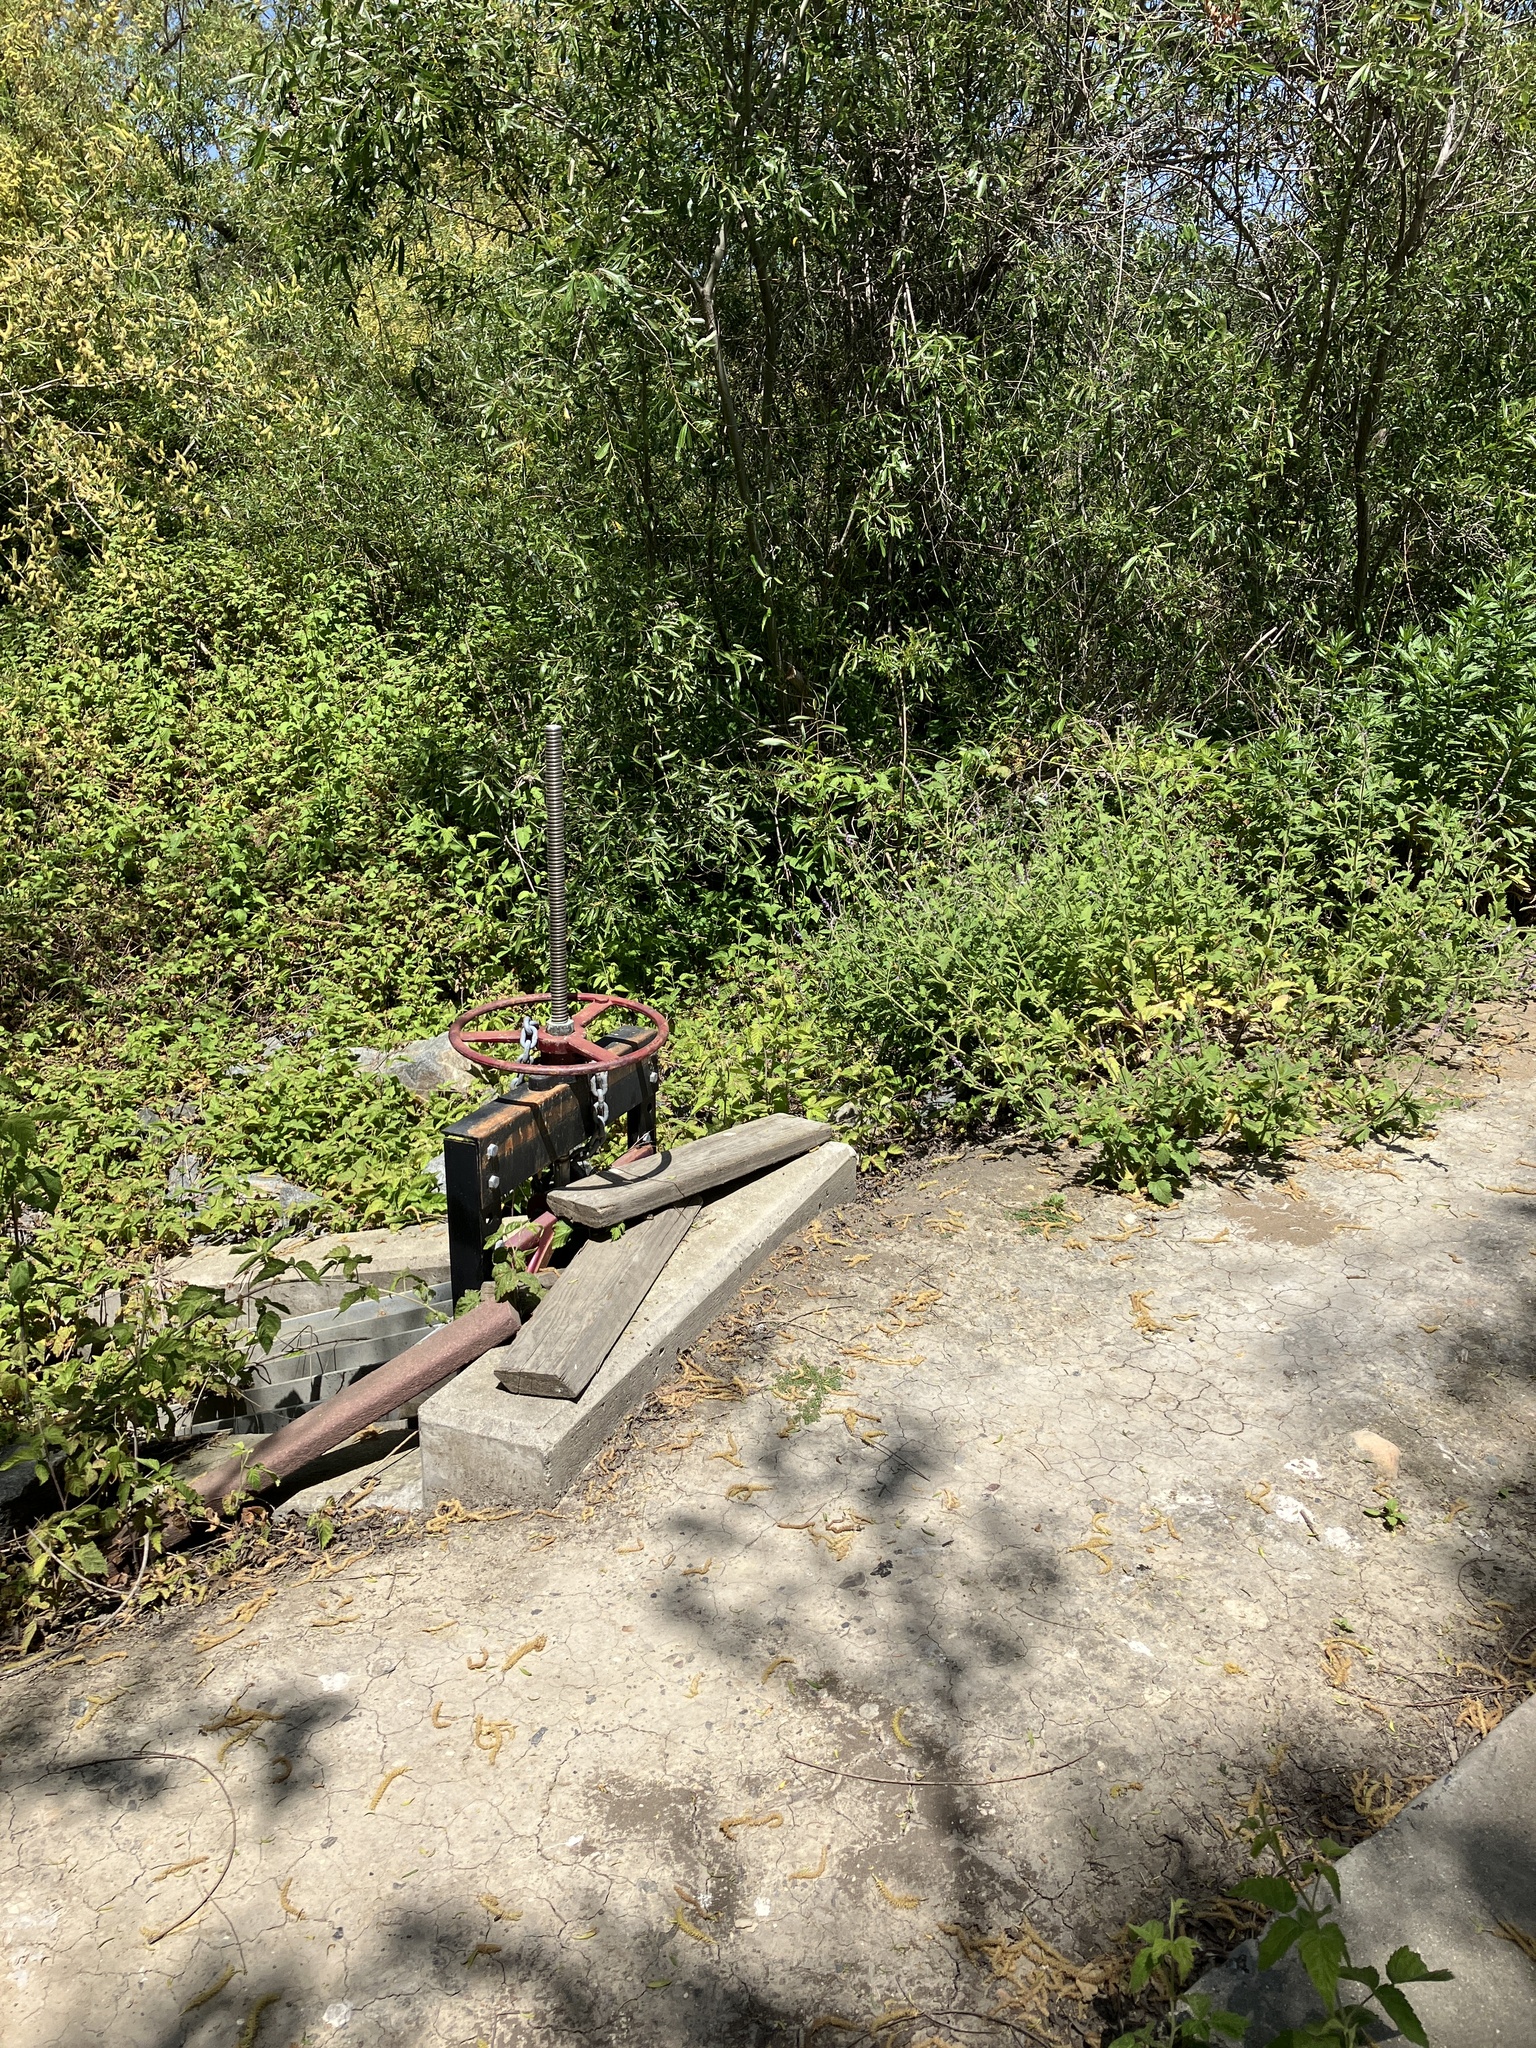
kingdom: Animalia
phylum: Chordata
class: Squamata
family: Phrynosomatidae
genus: Sceloporus
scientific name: Sceloporus occidentalis
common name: Western fence lizard
